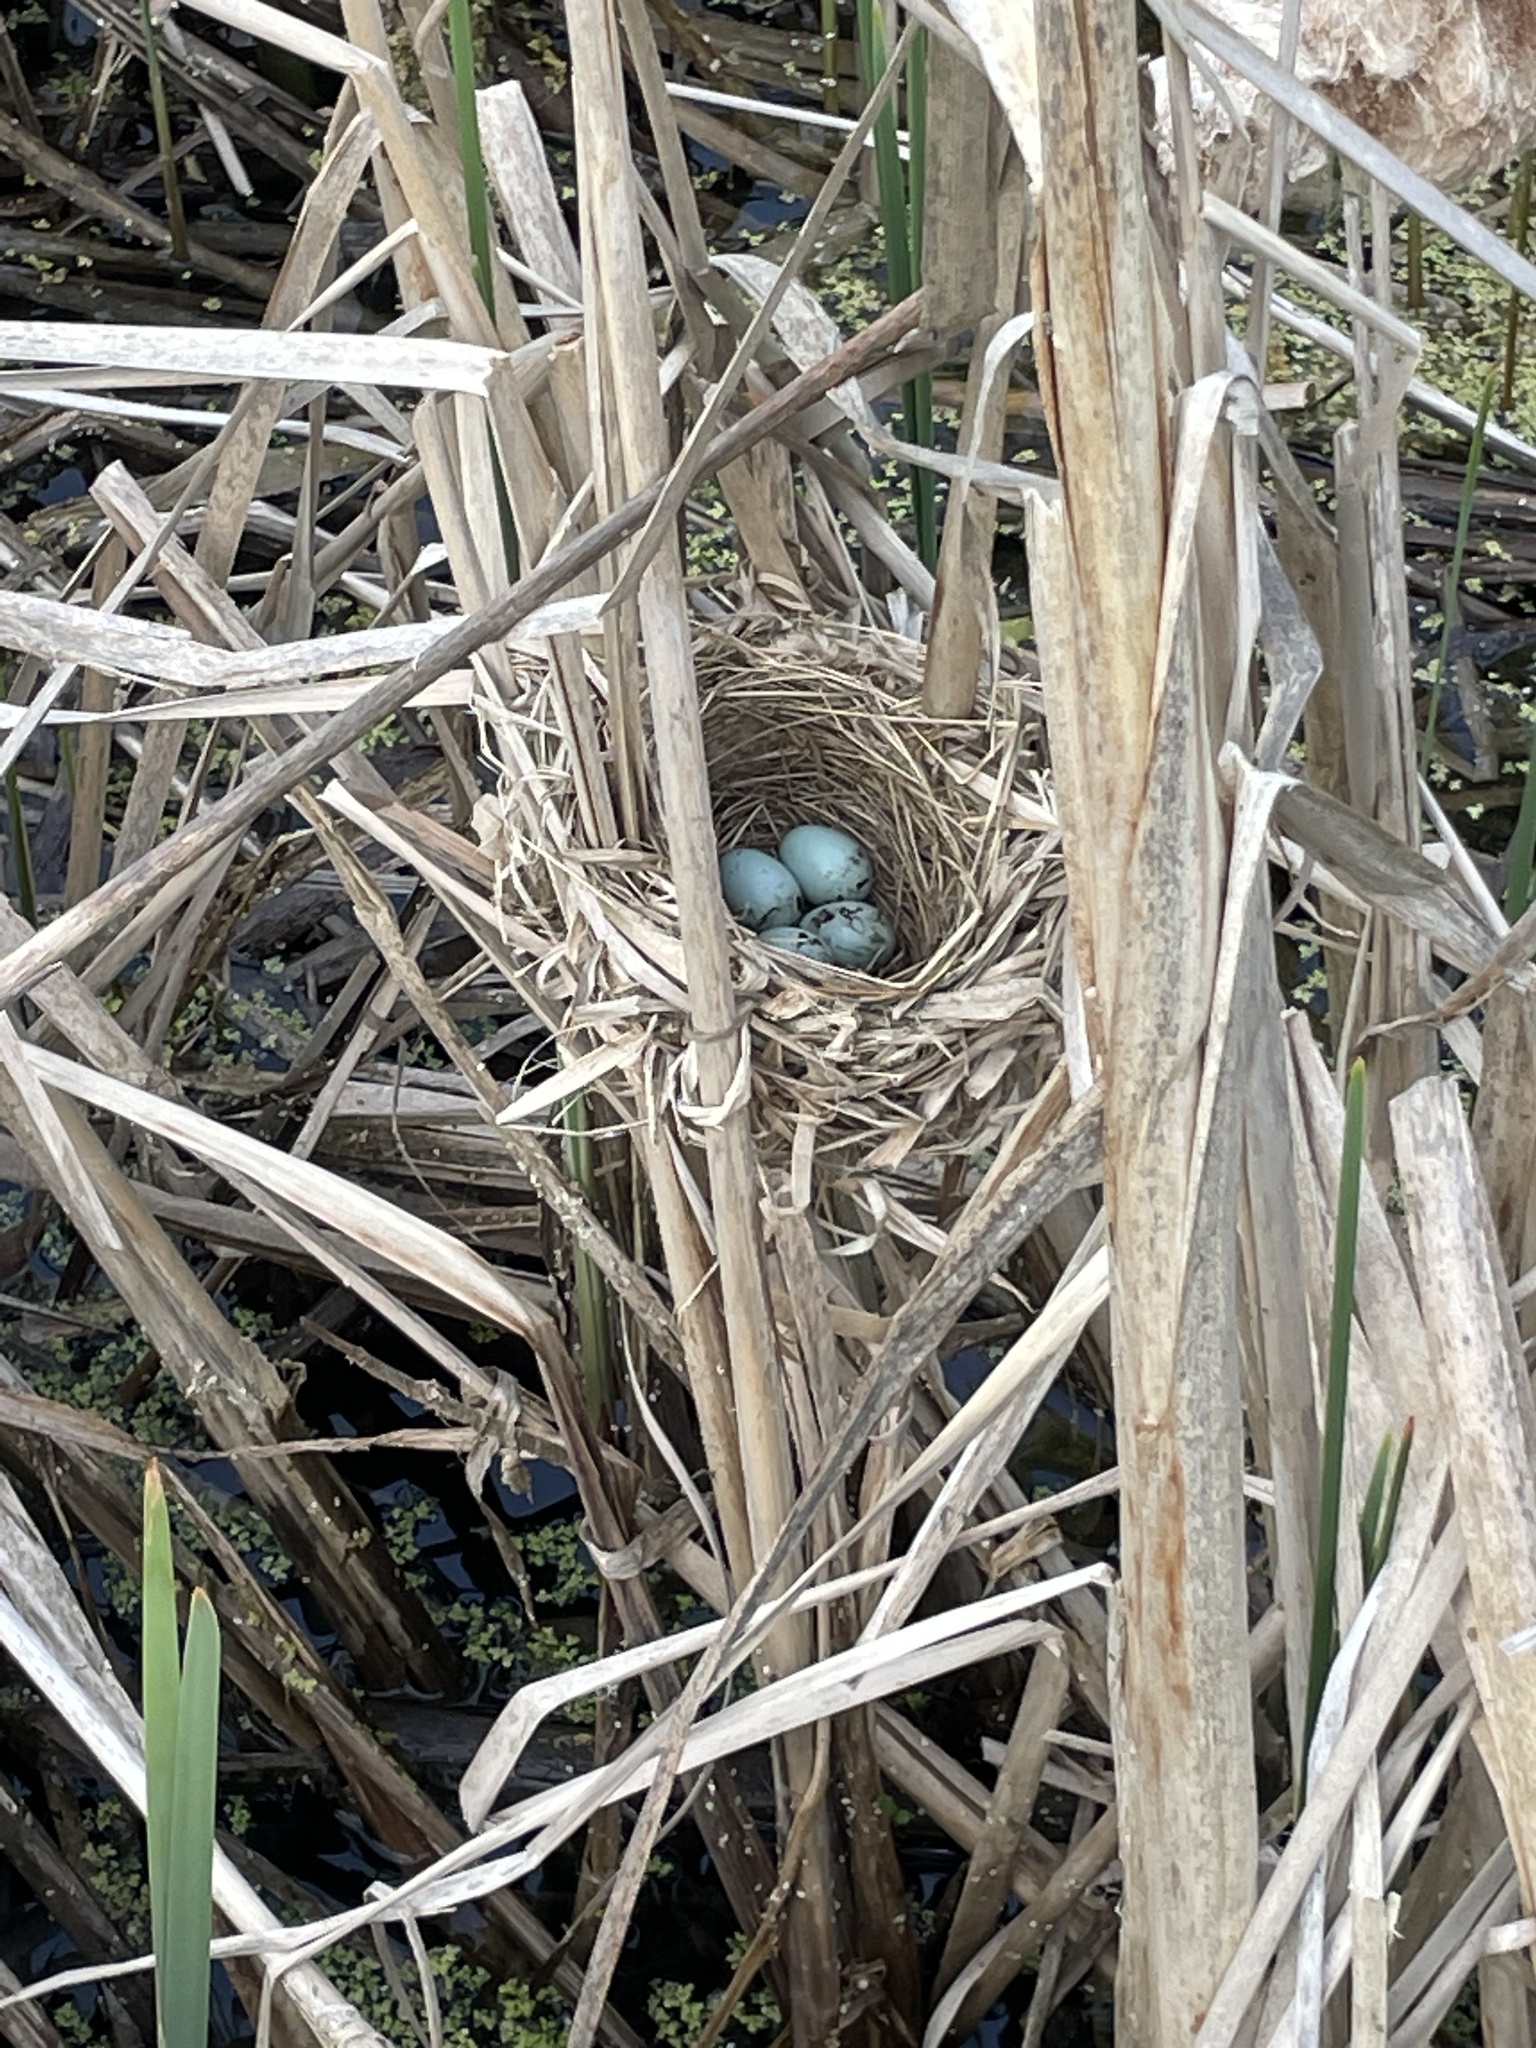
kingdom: Animalia
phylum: Chordata
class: Aves
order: Passeriformes
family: Icteridae
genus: Agelaius
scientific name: Agelaius phoeniceus
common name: Red-winged blackbird
